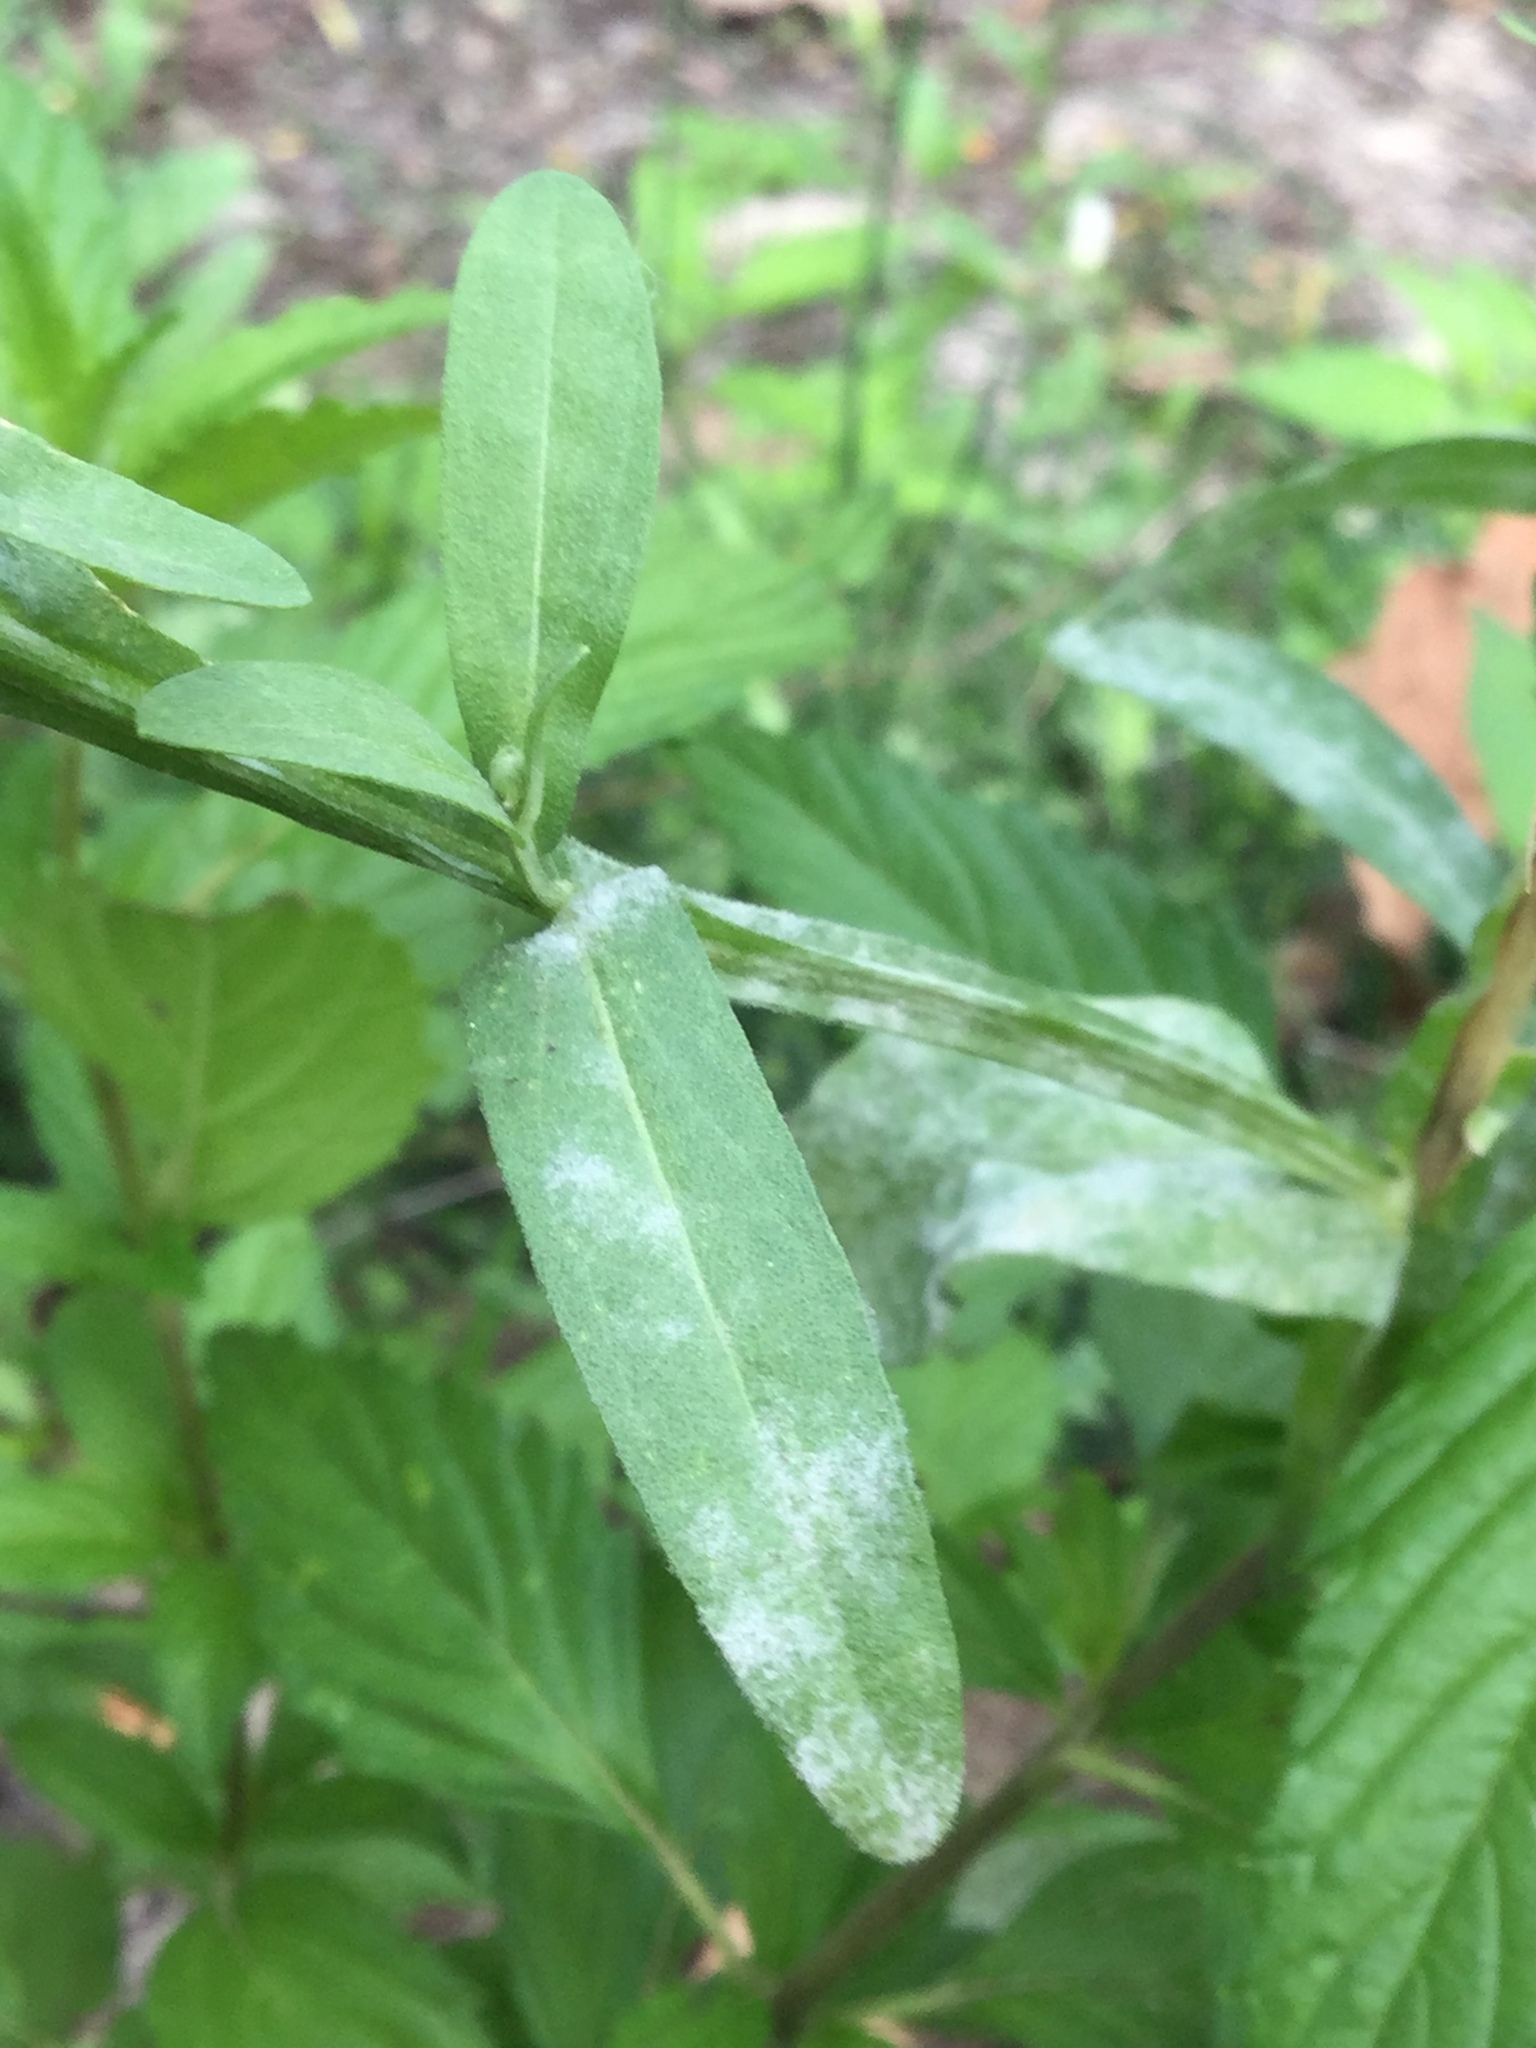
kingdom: Plantae
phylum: Tracheophyta
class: Magnoliopsida
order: Asterales
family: Asteraceae
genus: Helenium
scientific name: Helenium quadridentatum
